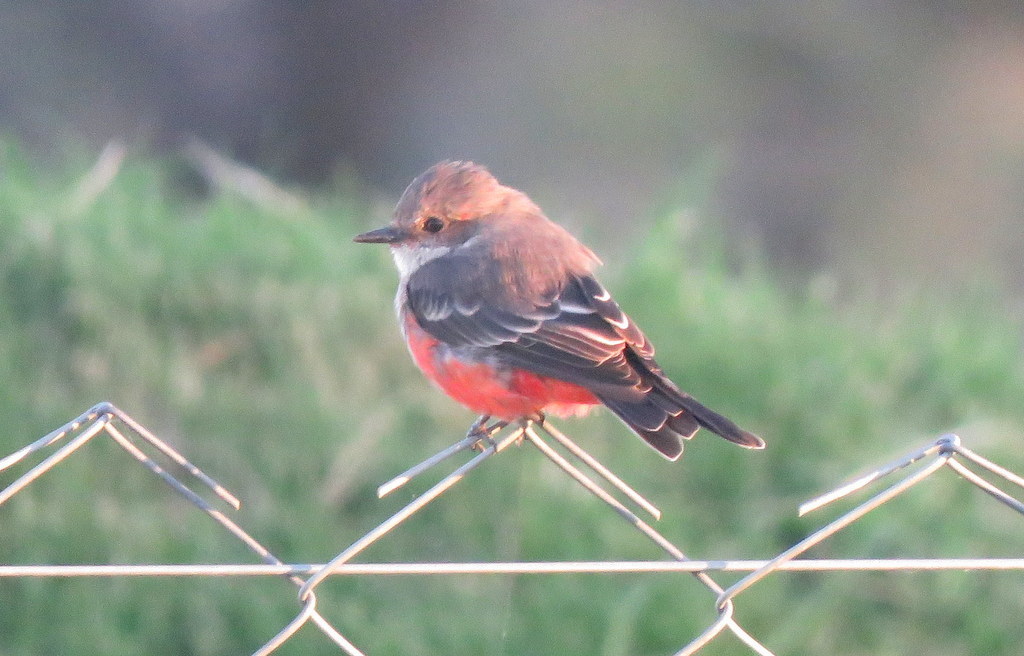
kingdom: Animalia
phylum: Chordata
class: Aves
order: Passeriformes
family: Tyrannidae
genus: Pyrocephalus
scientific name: Pyrocephalus rubinus
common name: Vermilion flycatcher
